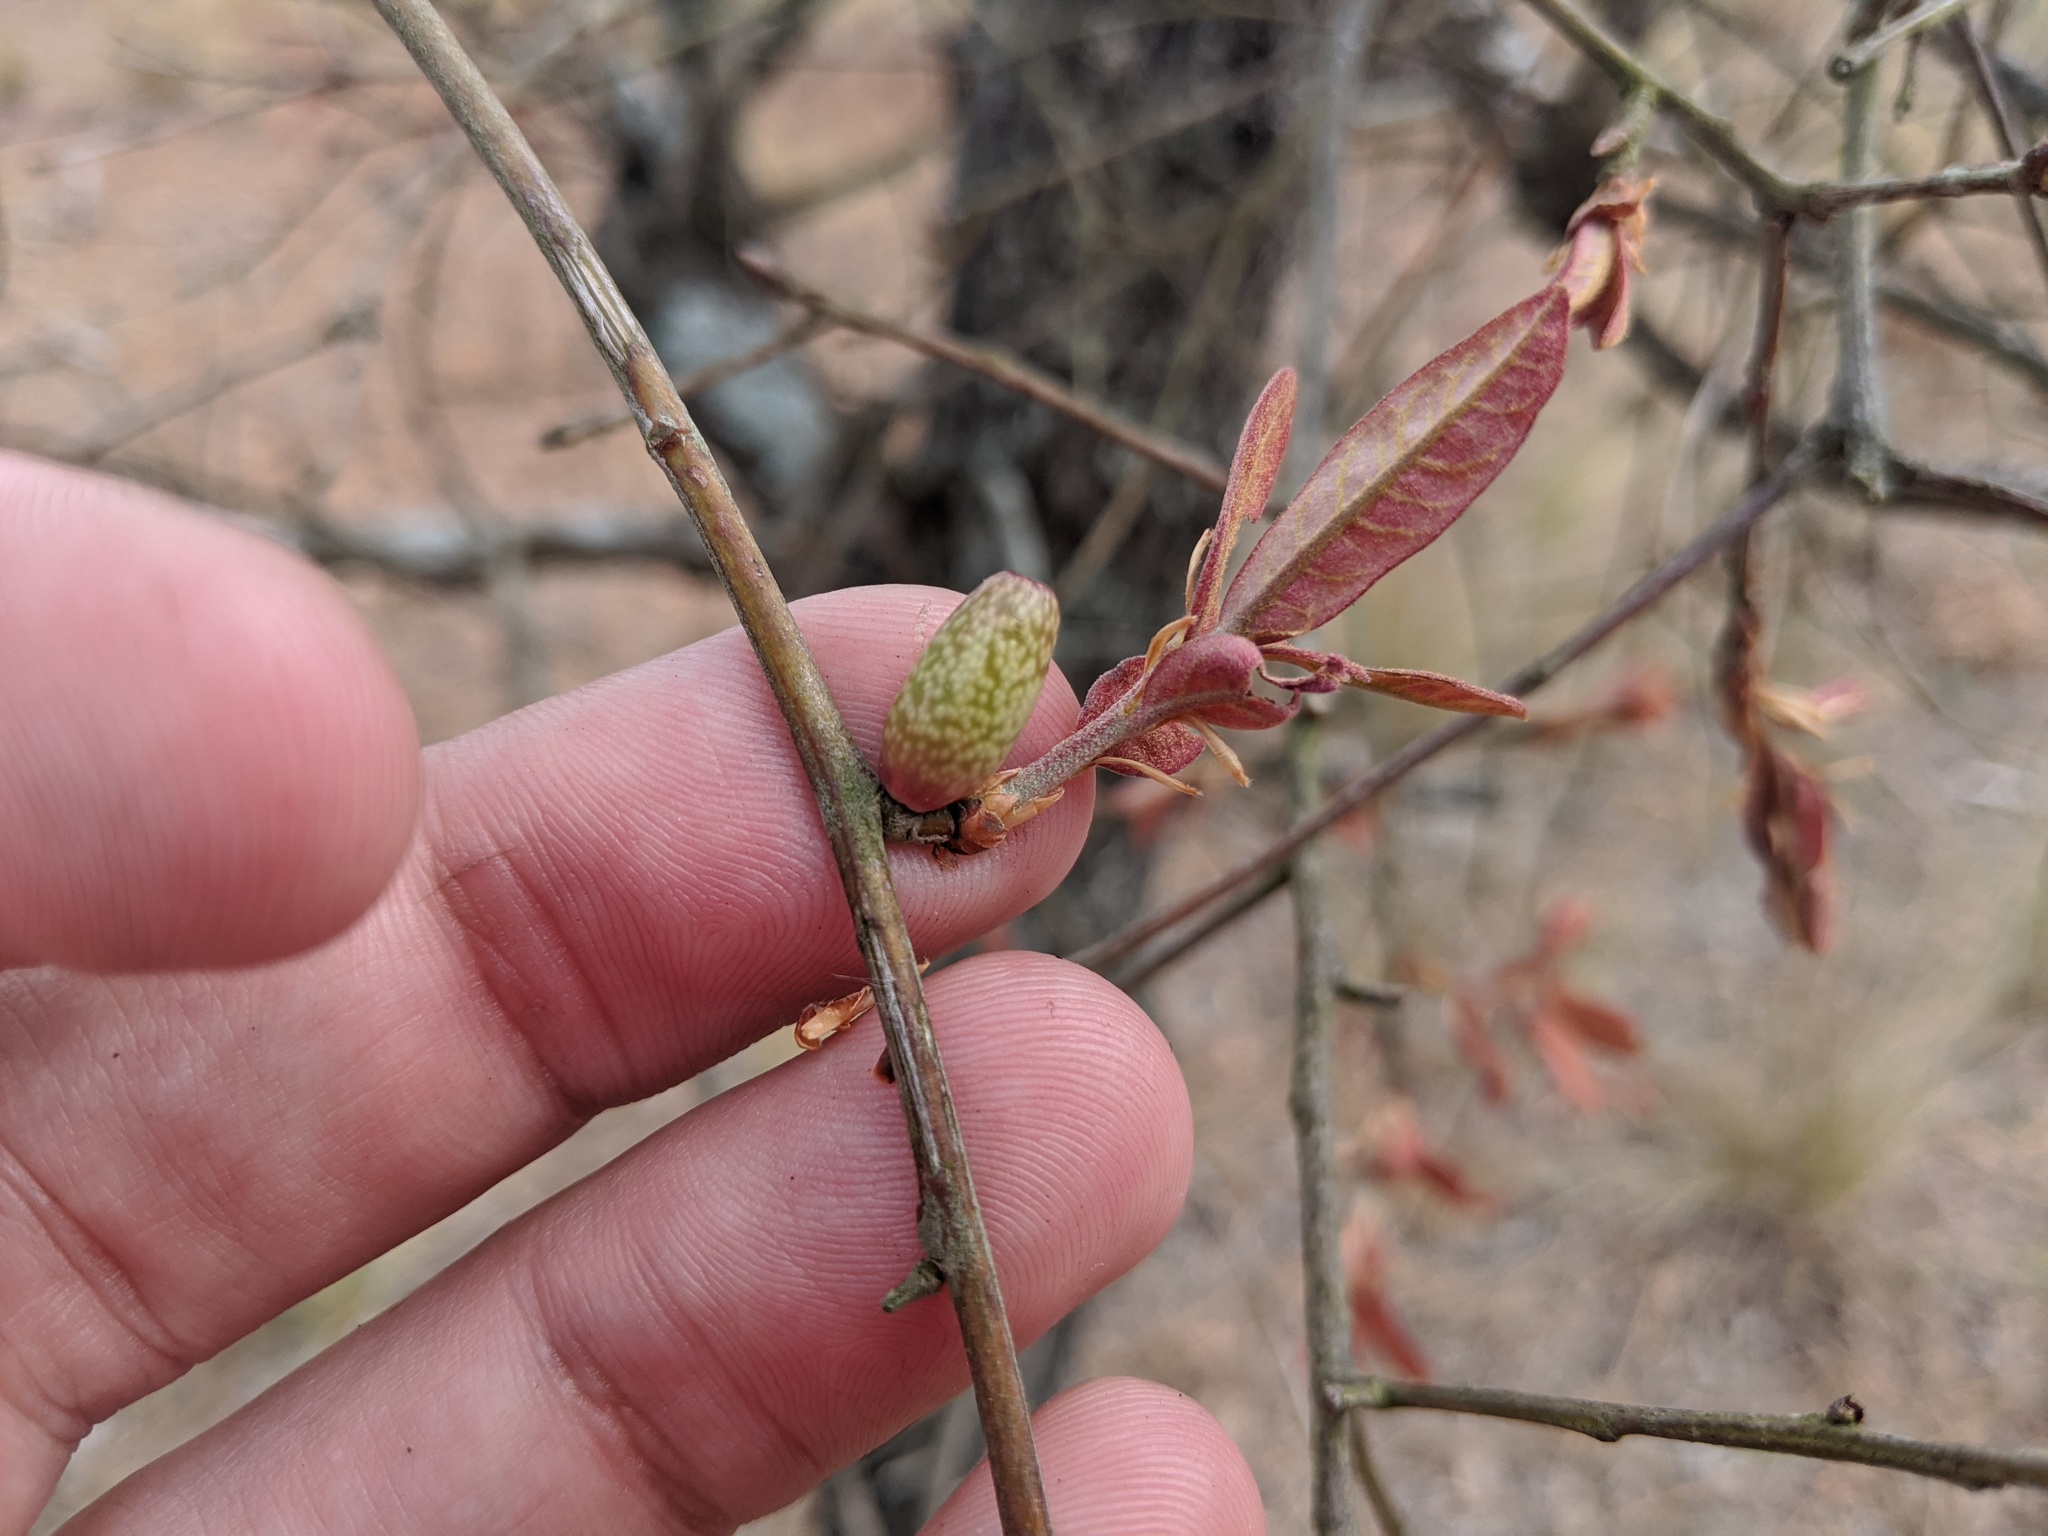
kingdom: Plantae
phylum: Tracheophyta
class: Magnoliopsida
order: Fagales
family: Fagaceae
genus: Quercus
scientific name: Quercus incana
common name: Bluejack oak
